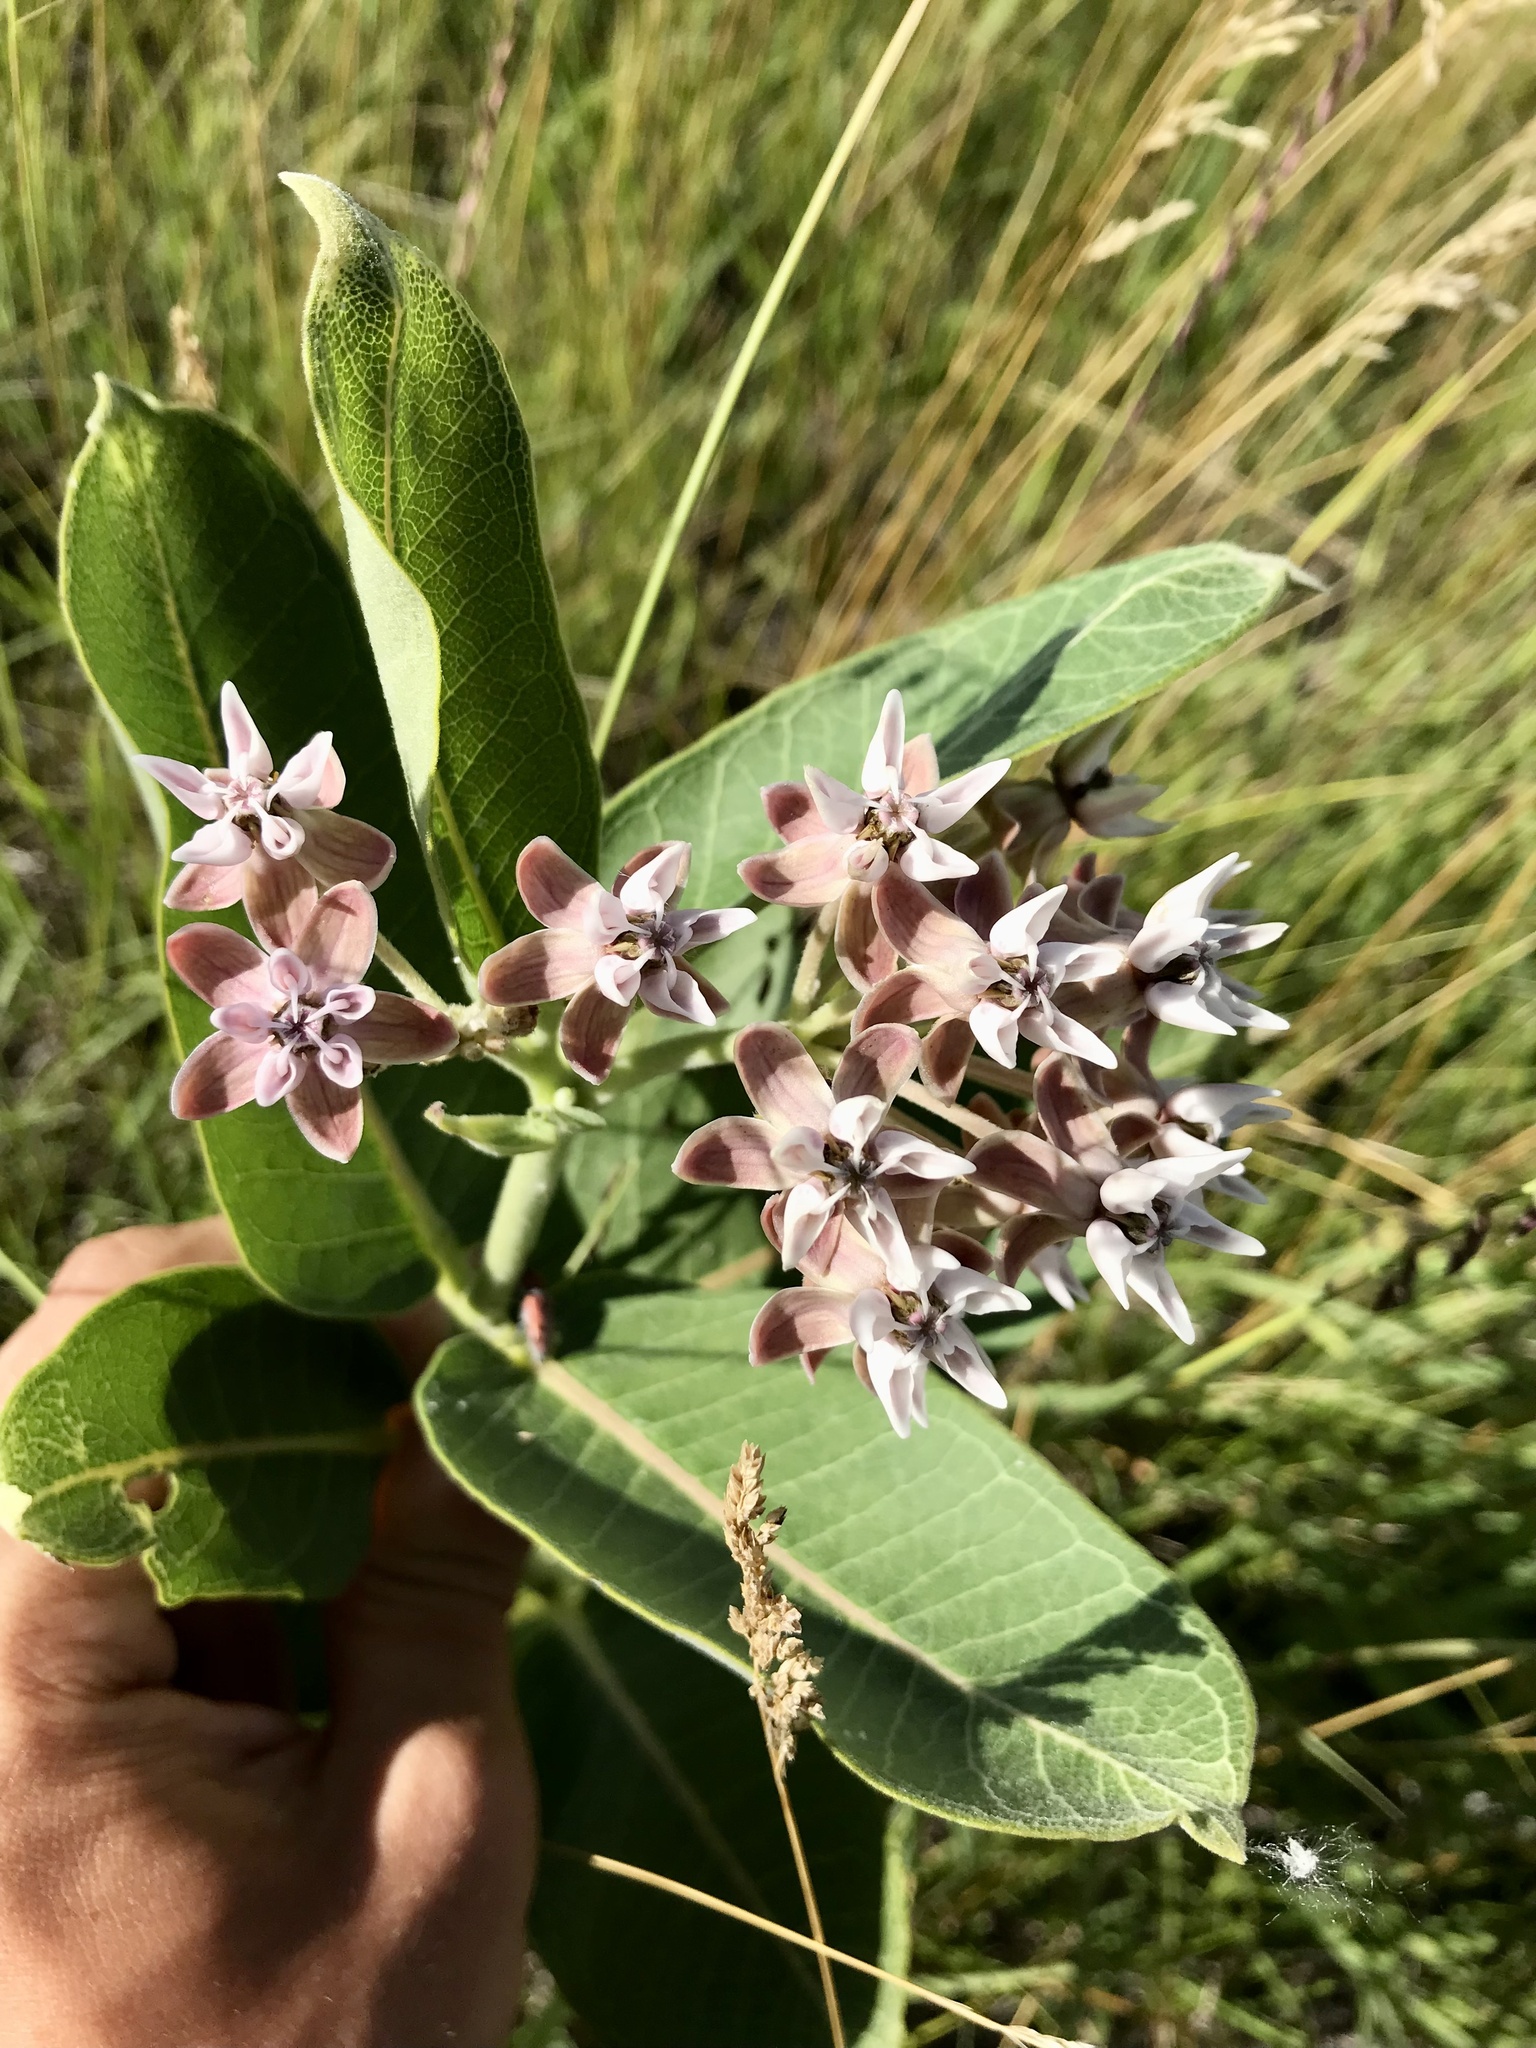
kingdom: Plantae
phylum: Tracheophyta
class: Magnoliopsida
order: Gentianales
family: Apocynaceae
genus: Asclepias
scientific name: Asclepias
